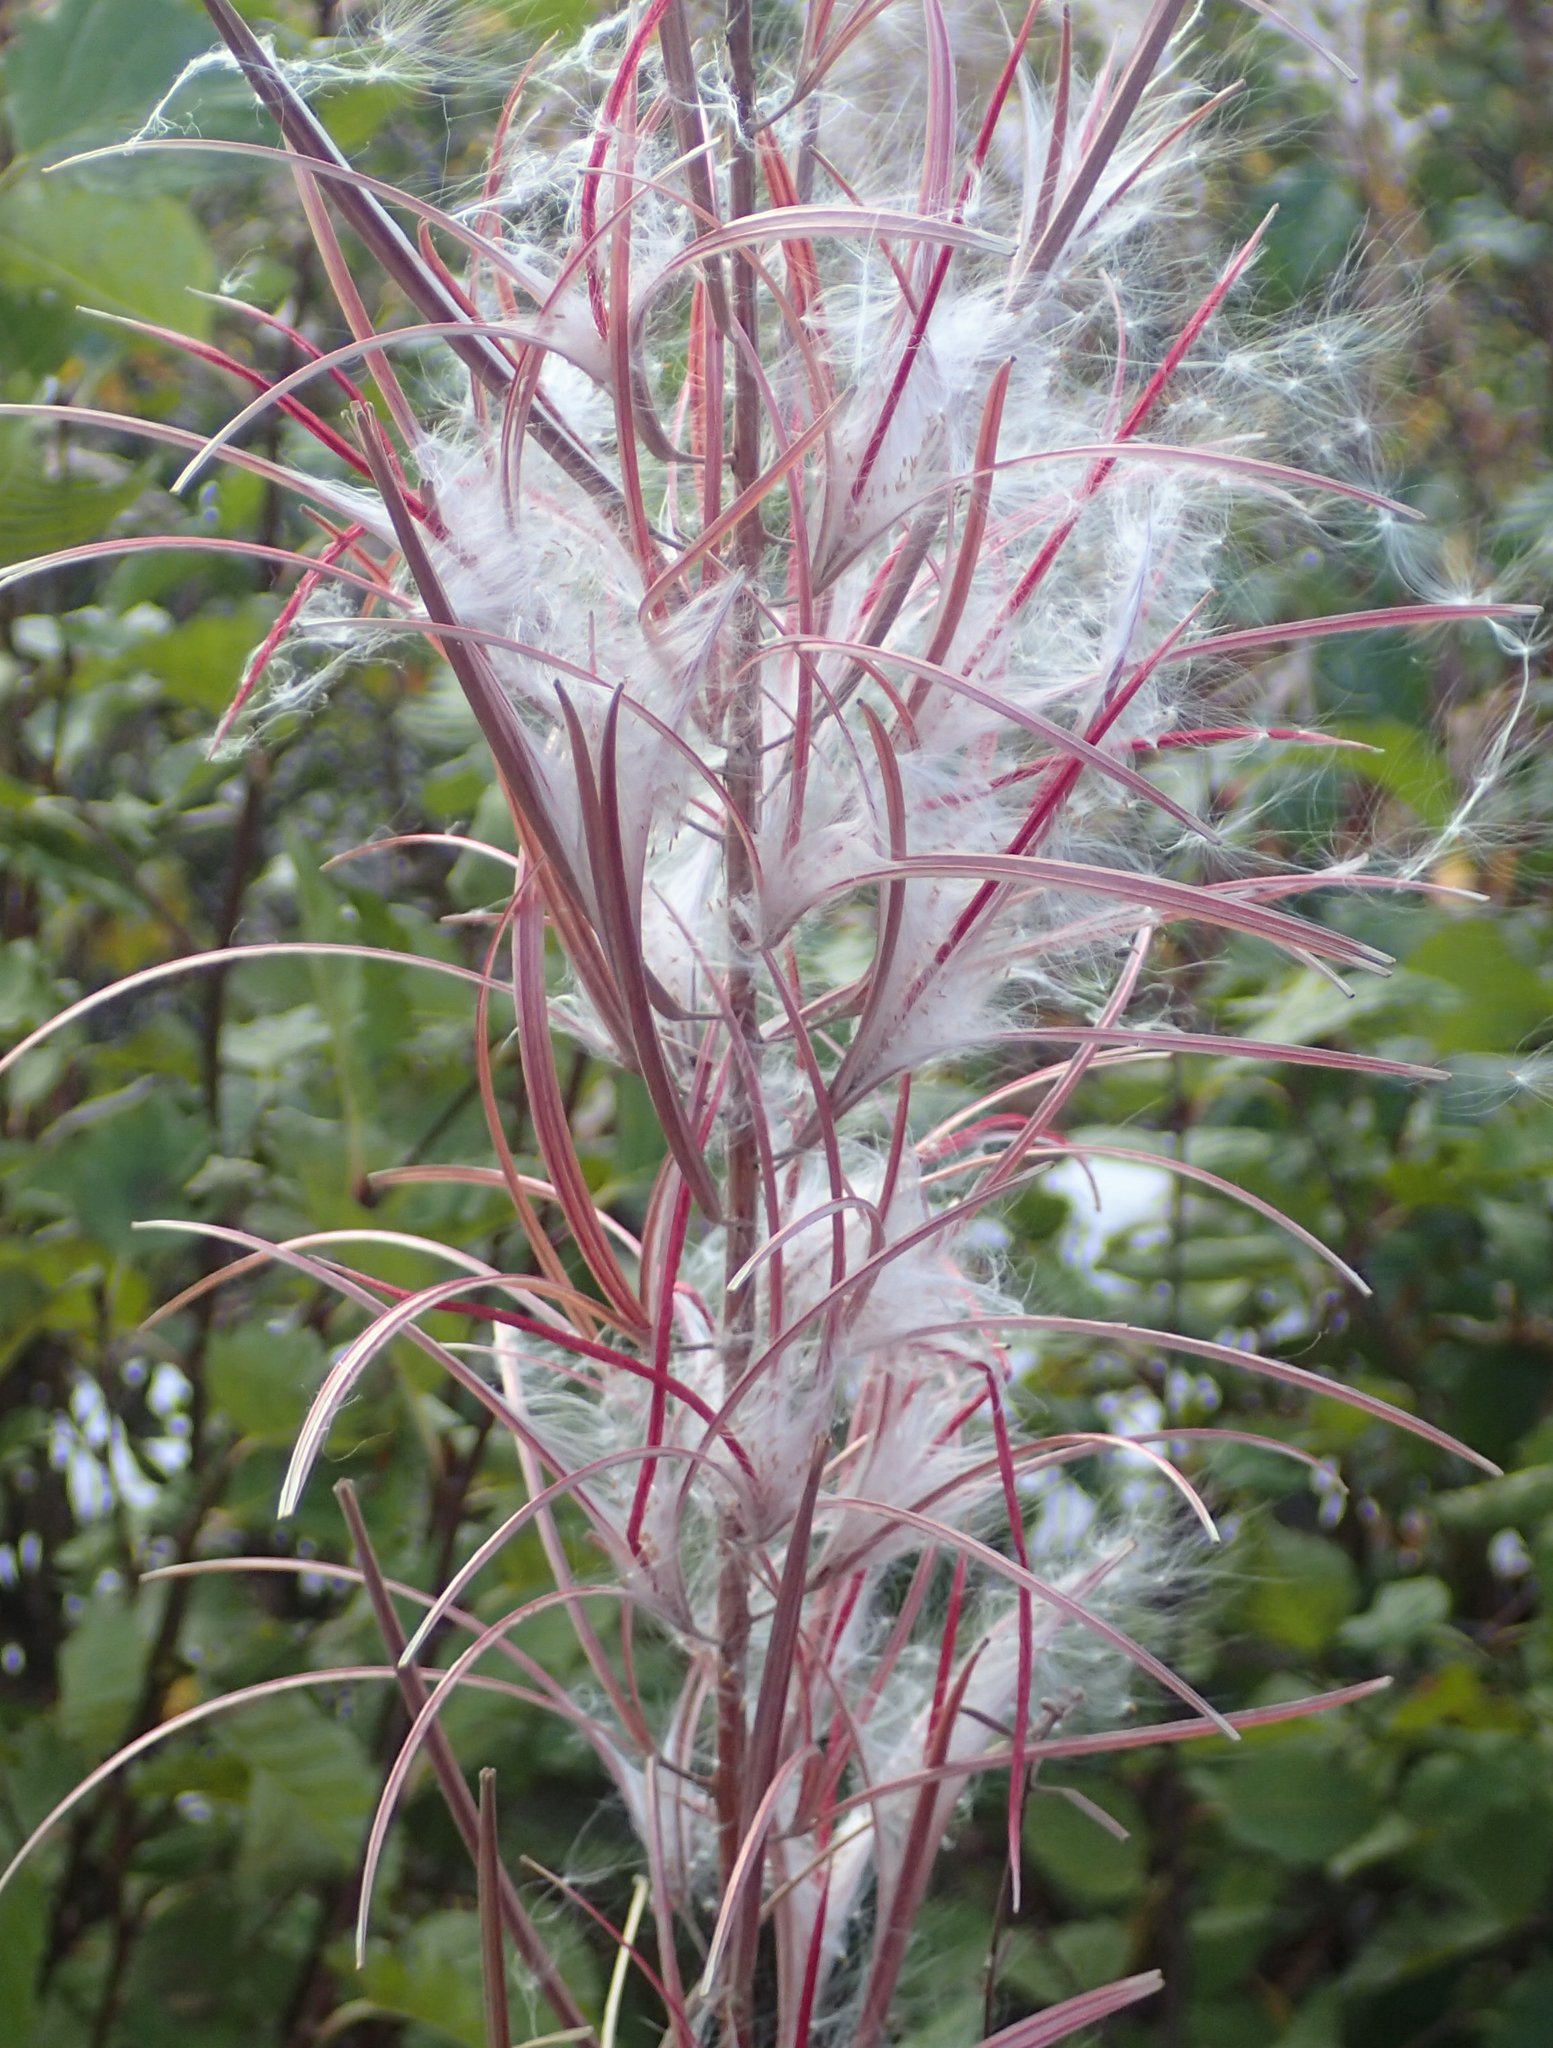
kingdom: Plantae
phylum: Tracheophyta
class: Magnoliopsida
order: Myrtales
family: Onagraceae
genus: Chamaenerion
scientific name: Chamaenerion angustifolium
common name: Fireweed
